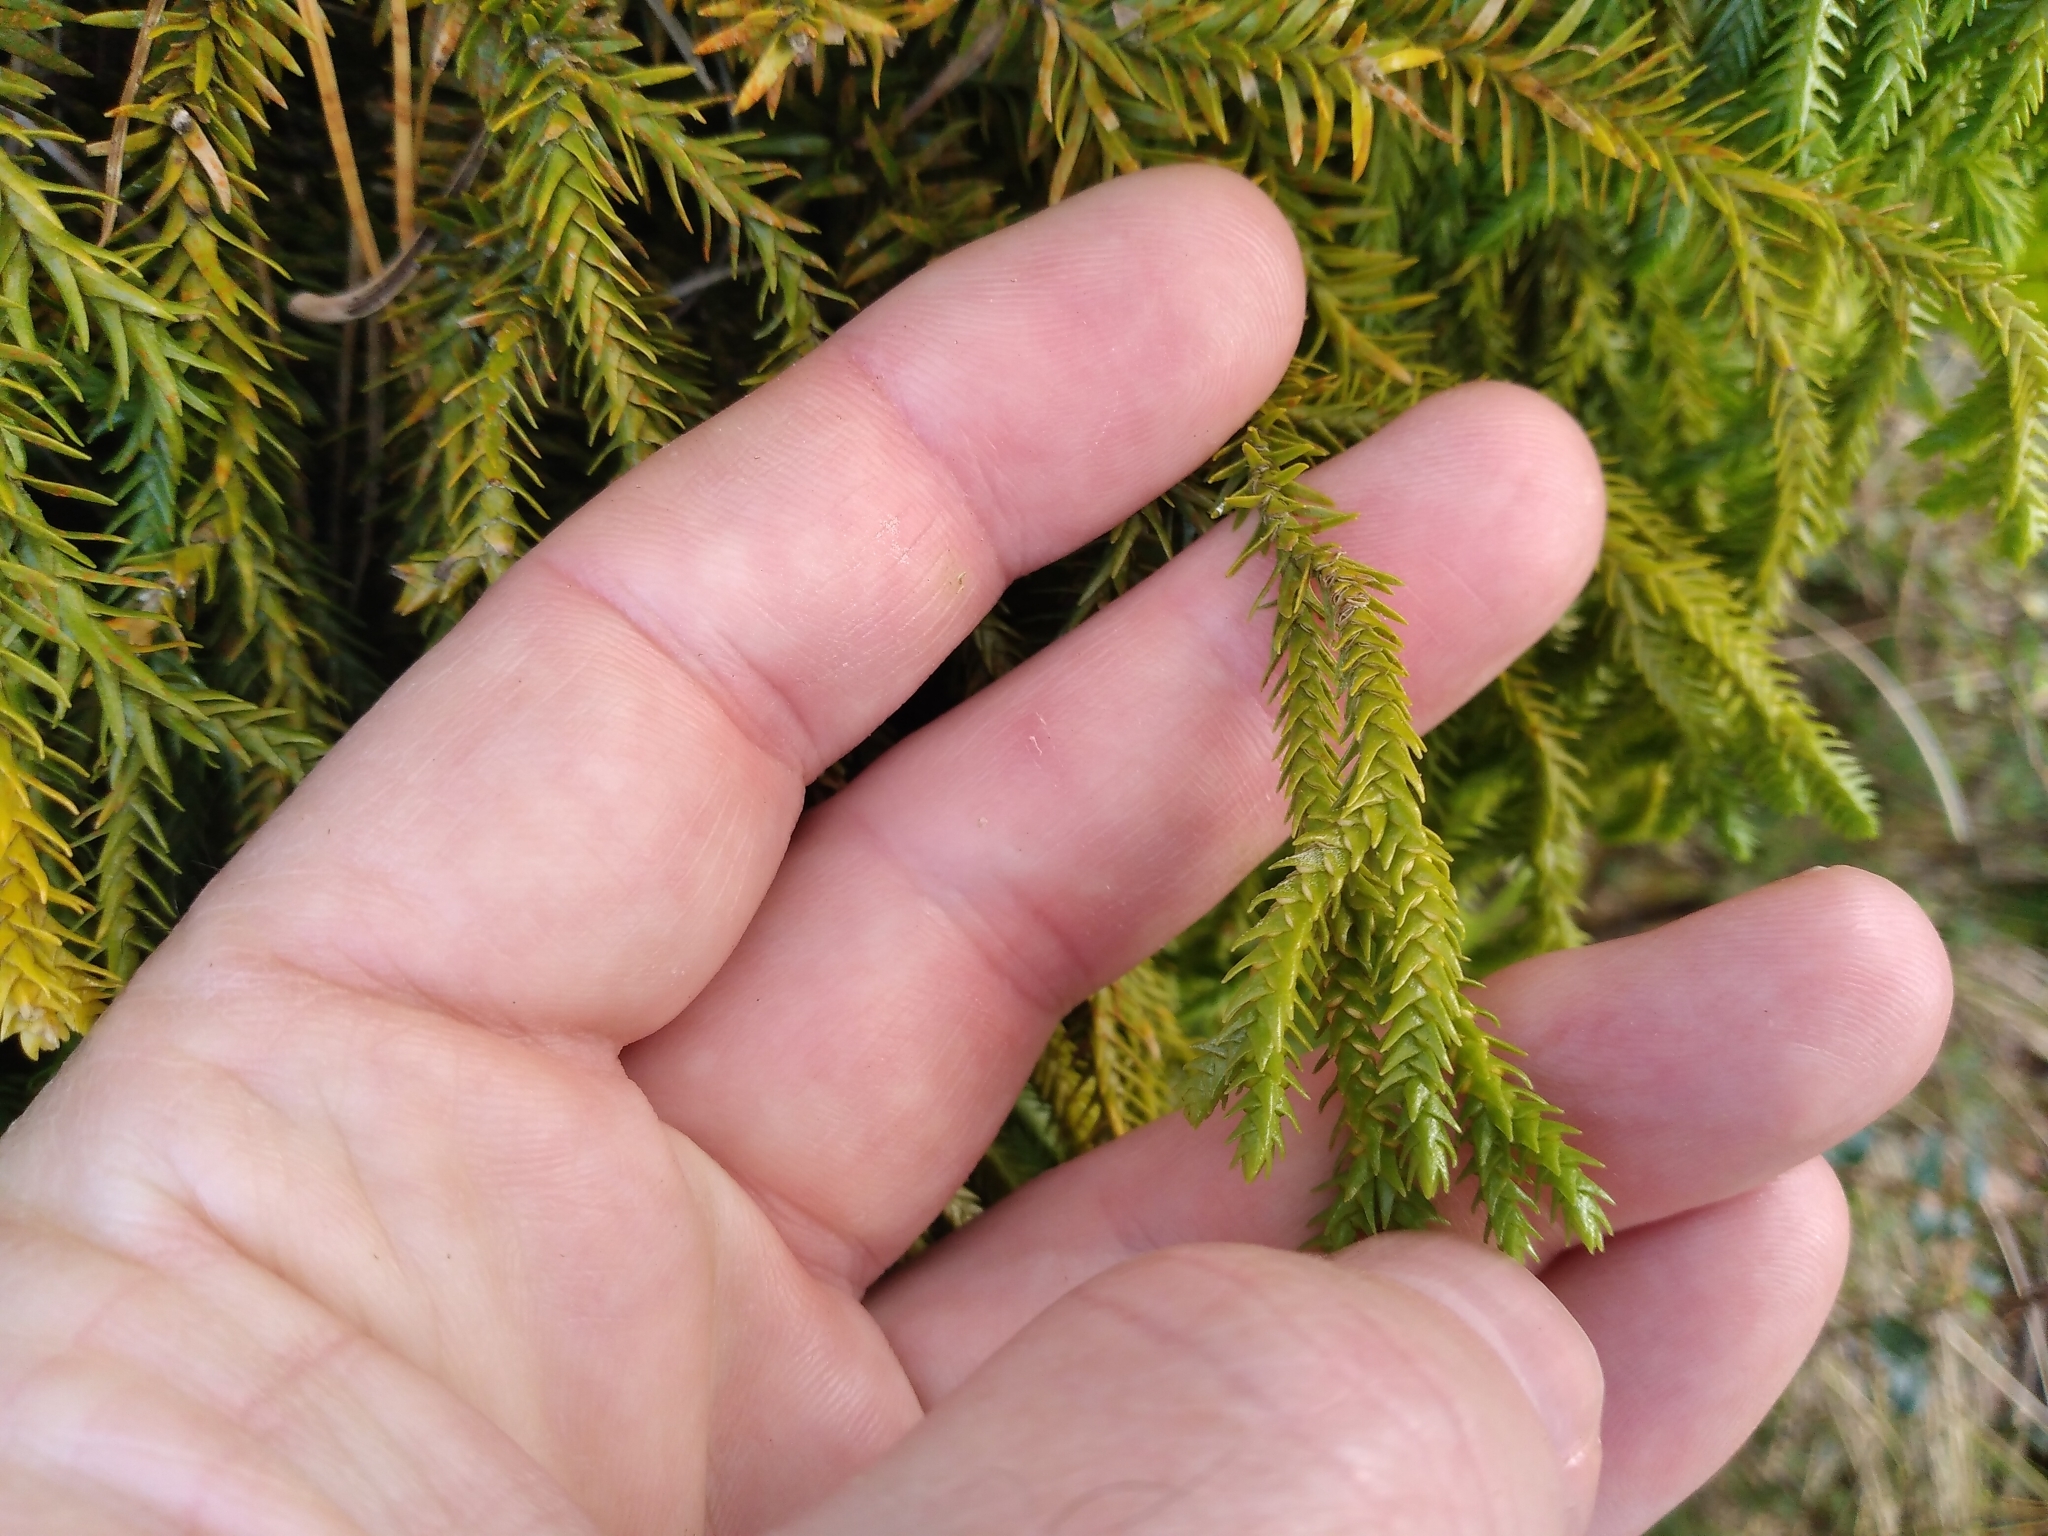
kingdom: Plantae
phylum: Tracheophyta
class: Lycopodiopsida
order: Lycopodiales
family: Lycopodiaceae
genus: Phlegmariurus
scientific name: Phlegmariurus varius
